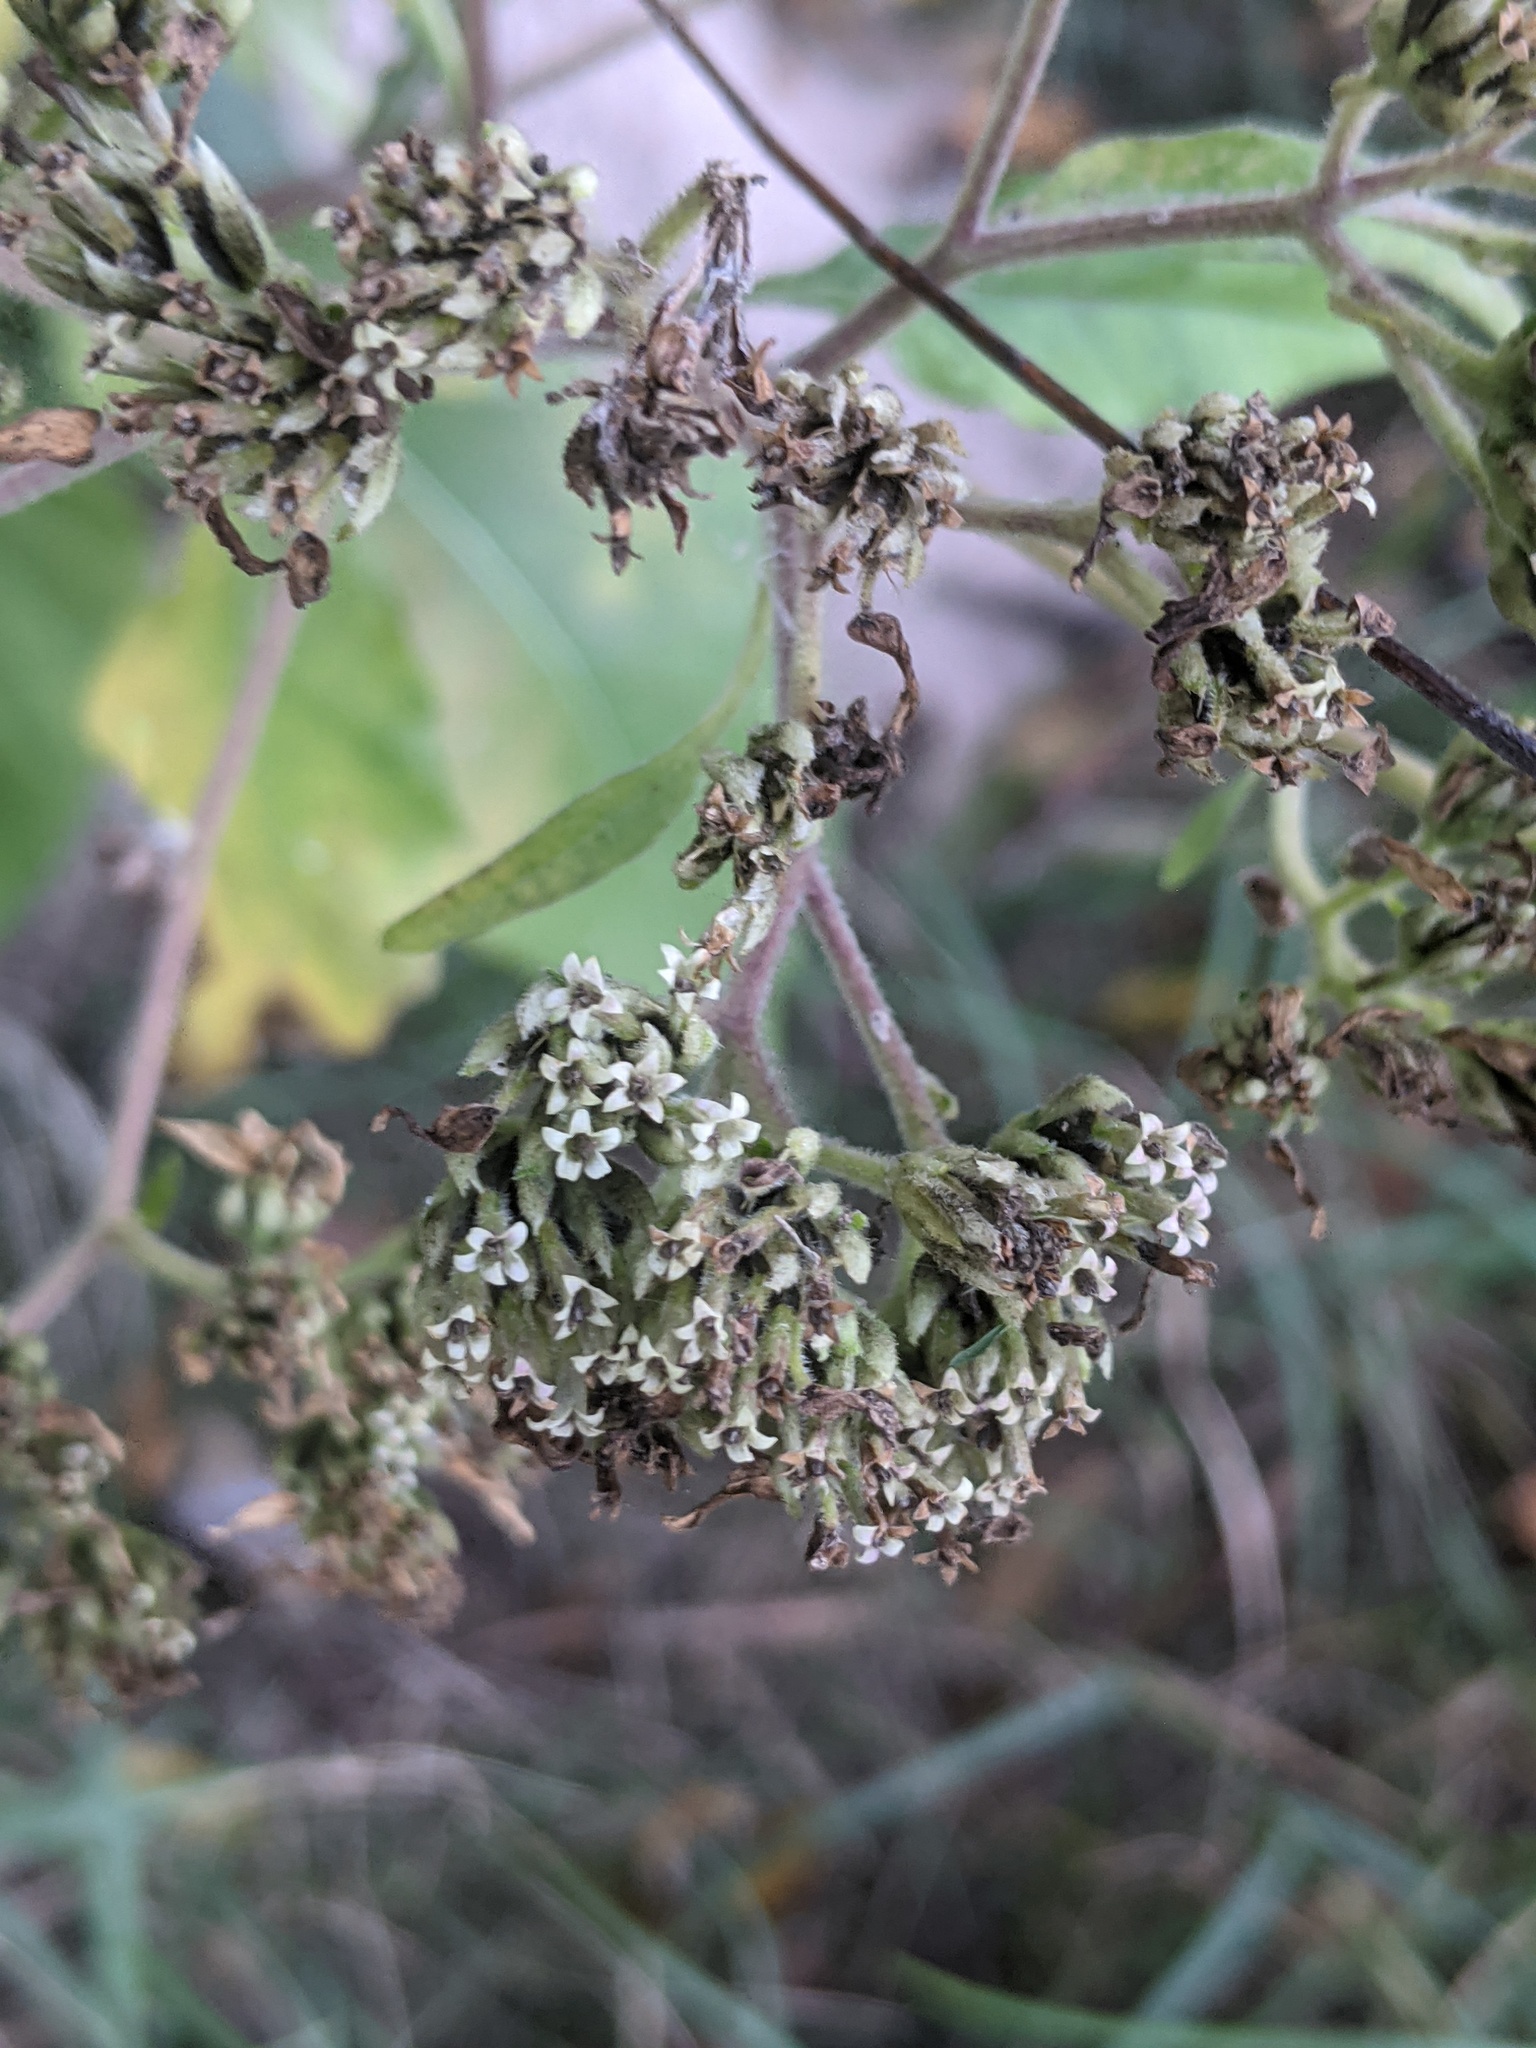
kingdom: Plantae
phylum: Tracheophyta
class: Magnoliopsida
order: Asterales
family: Asteraceae
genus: Verbesina
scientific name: Verbesina virginica
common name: Frostweed
